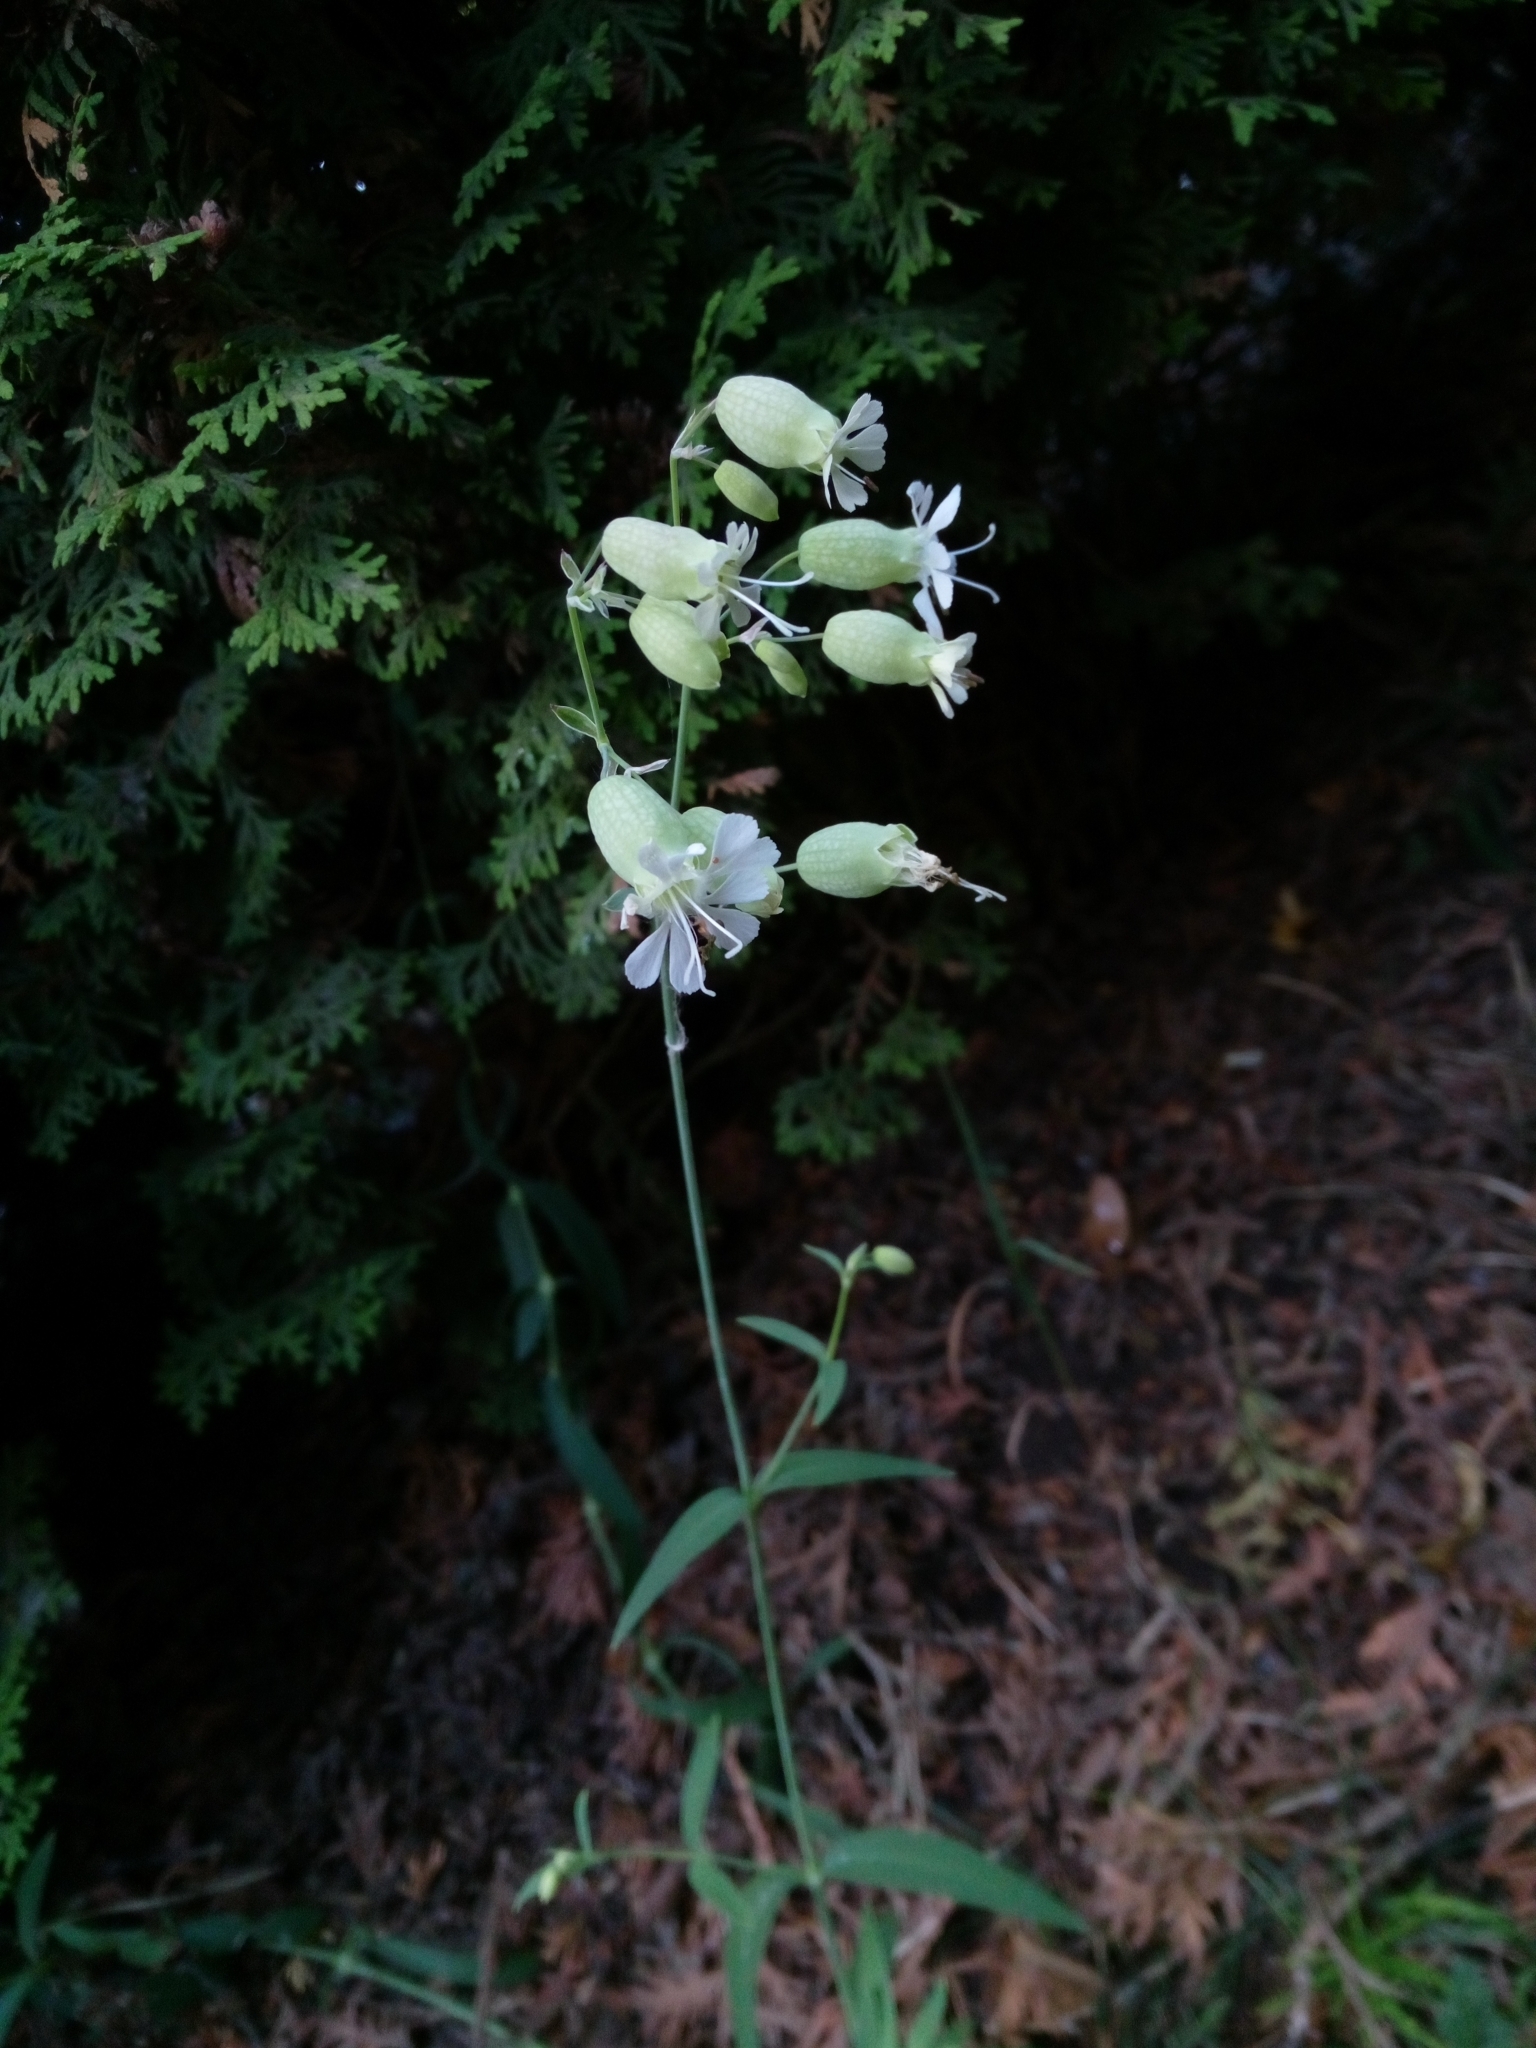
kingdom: Plantae
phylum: Tracheophyta
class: Magnoliopsida
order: Caryophyllales
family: Caryophyllaceae
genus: Silene
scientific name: Silene vulgaris
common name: Bladder campion
